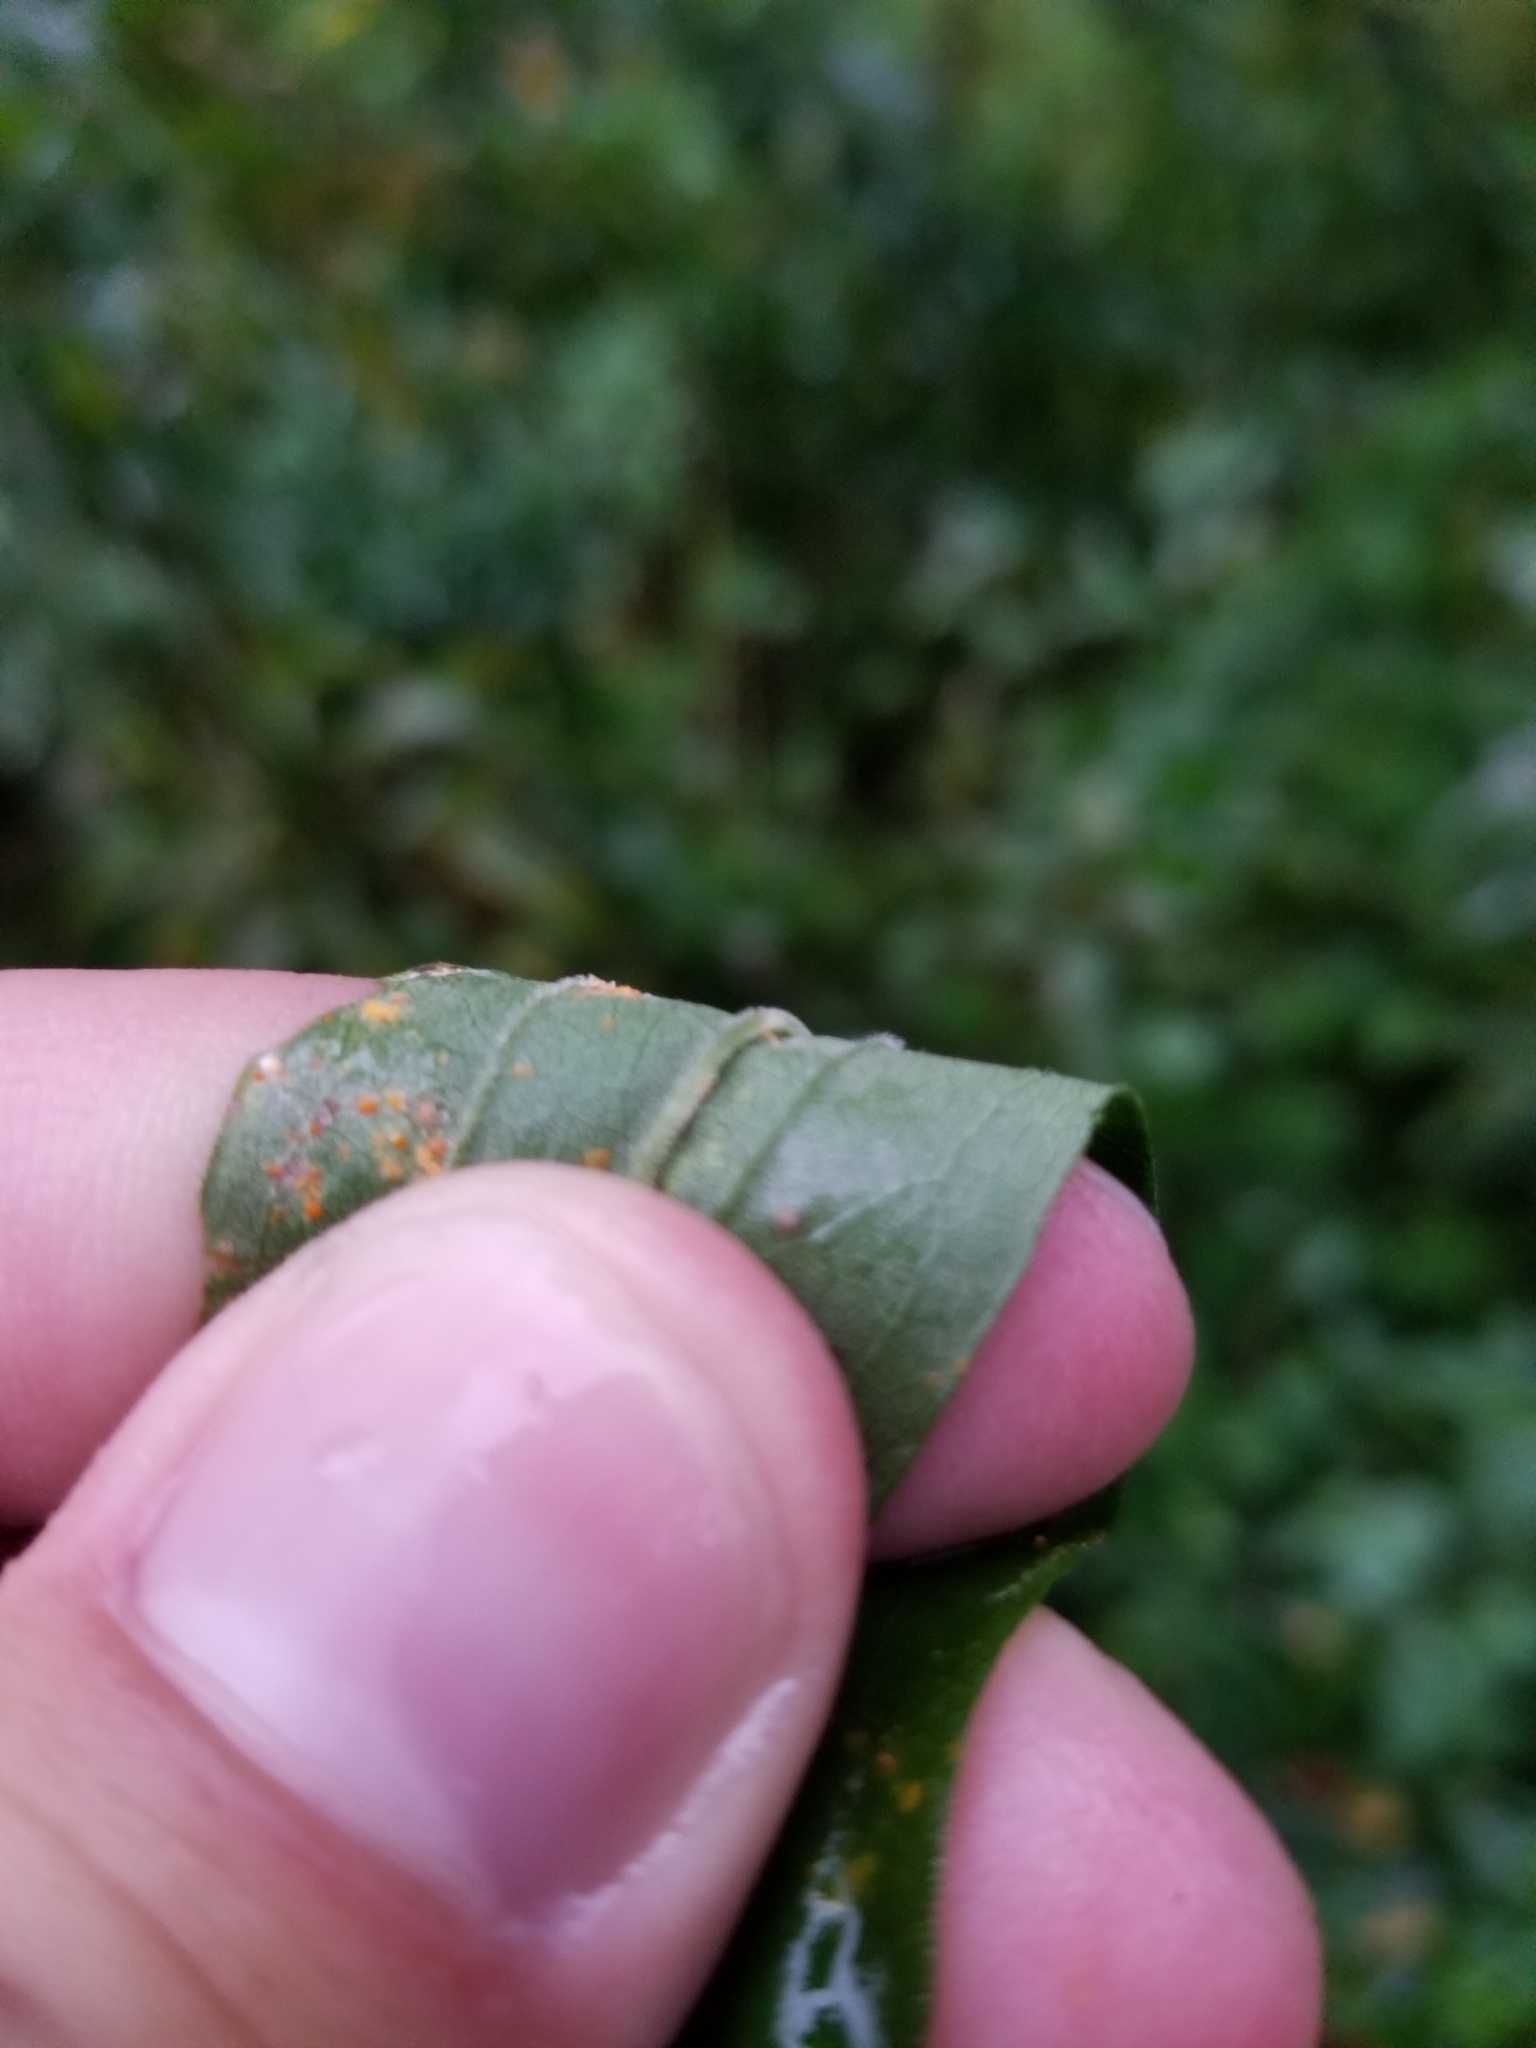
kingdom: Plantae
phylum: Tracheophyta
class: Magnoliopsida
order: Asterales
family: Asteraceae
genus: Solidago
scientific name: Solidago altissima
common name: Late goldenrod
